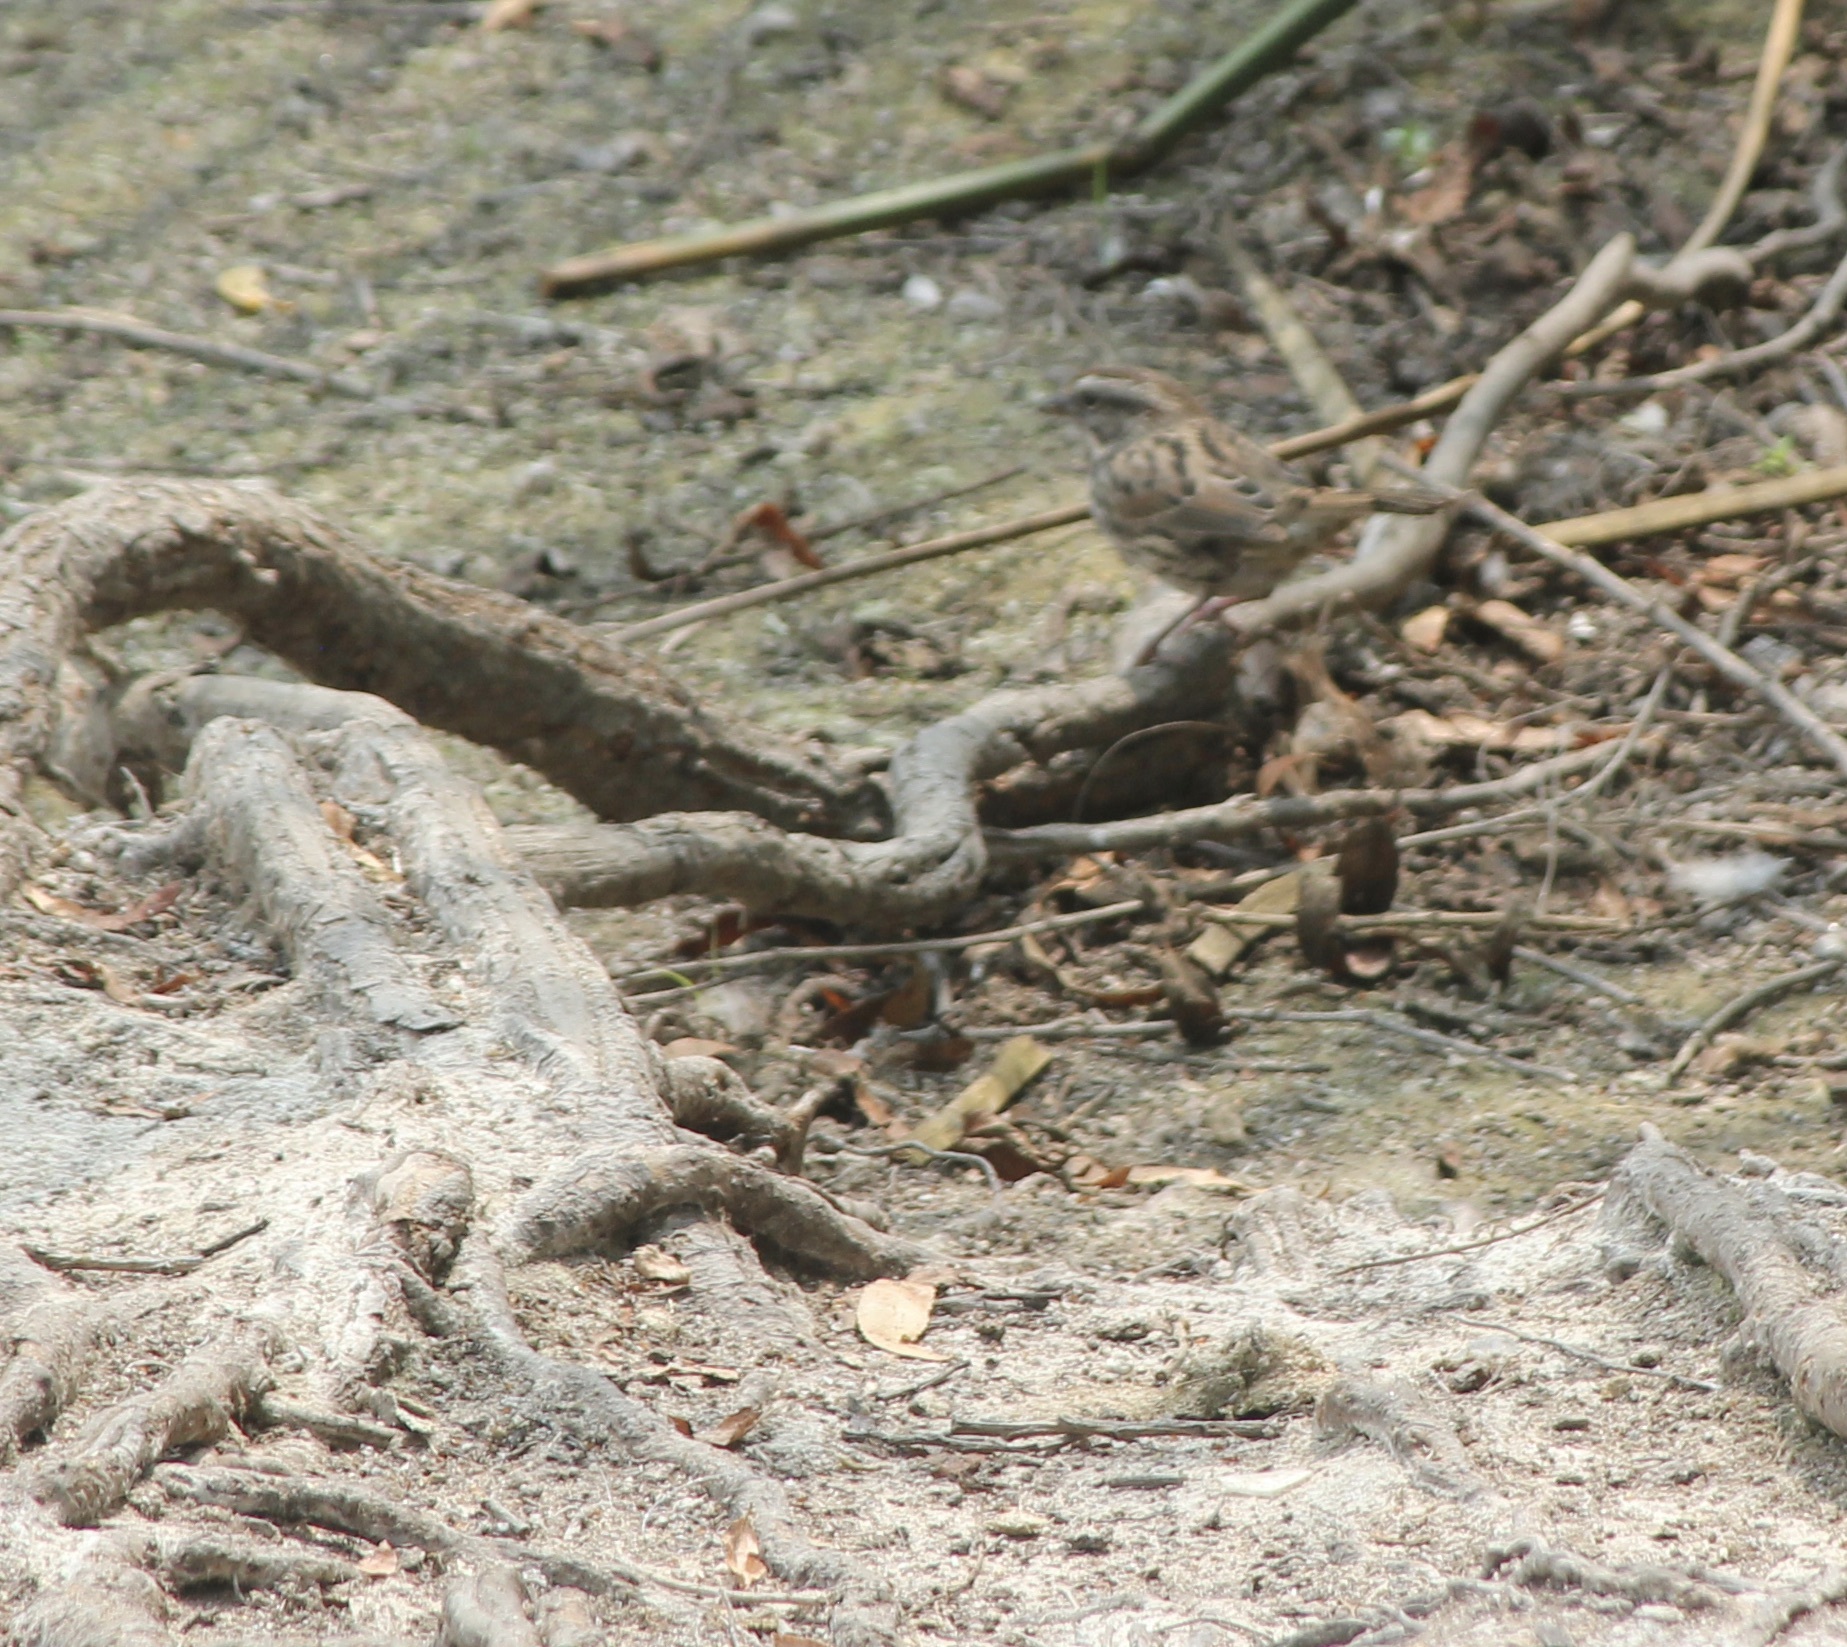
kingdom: Animalia
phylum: Chordata
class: Aves
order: Passeriformes
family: Passerellidae
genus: Melospiza
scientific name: Melospiza melodia
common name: Song sparrow
